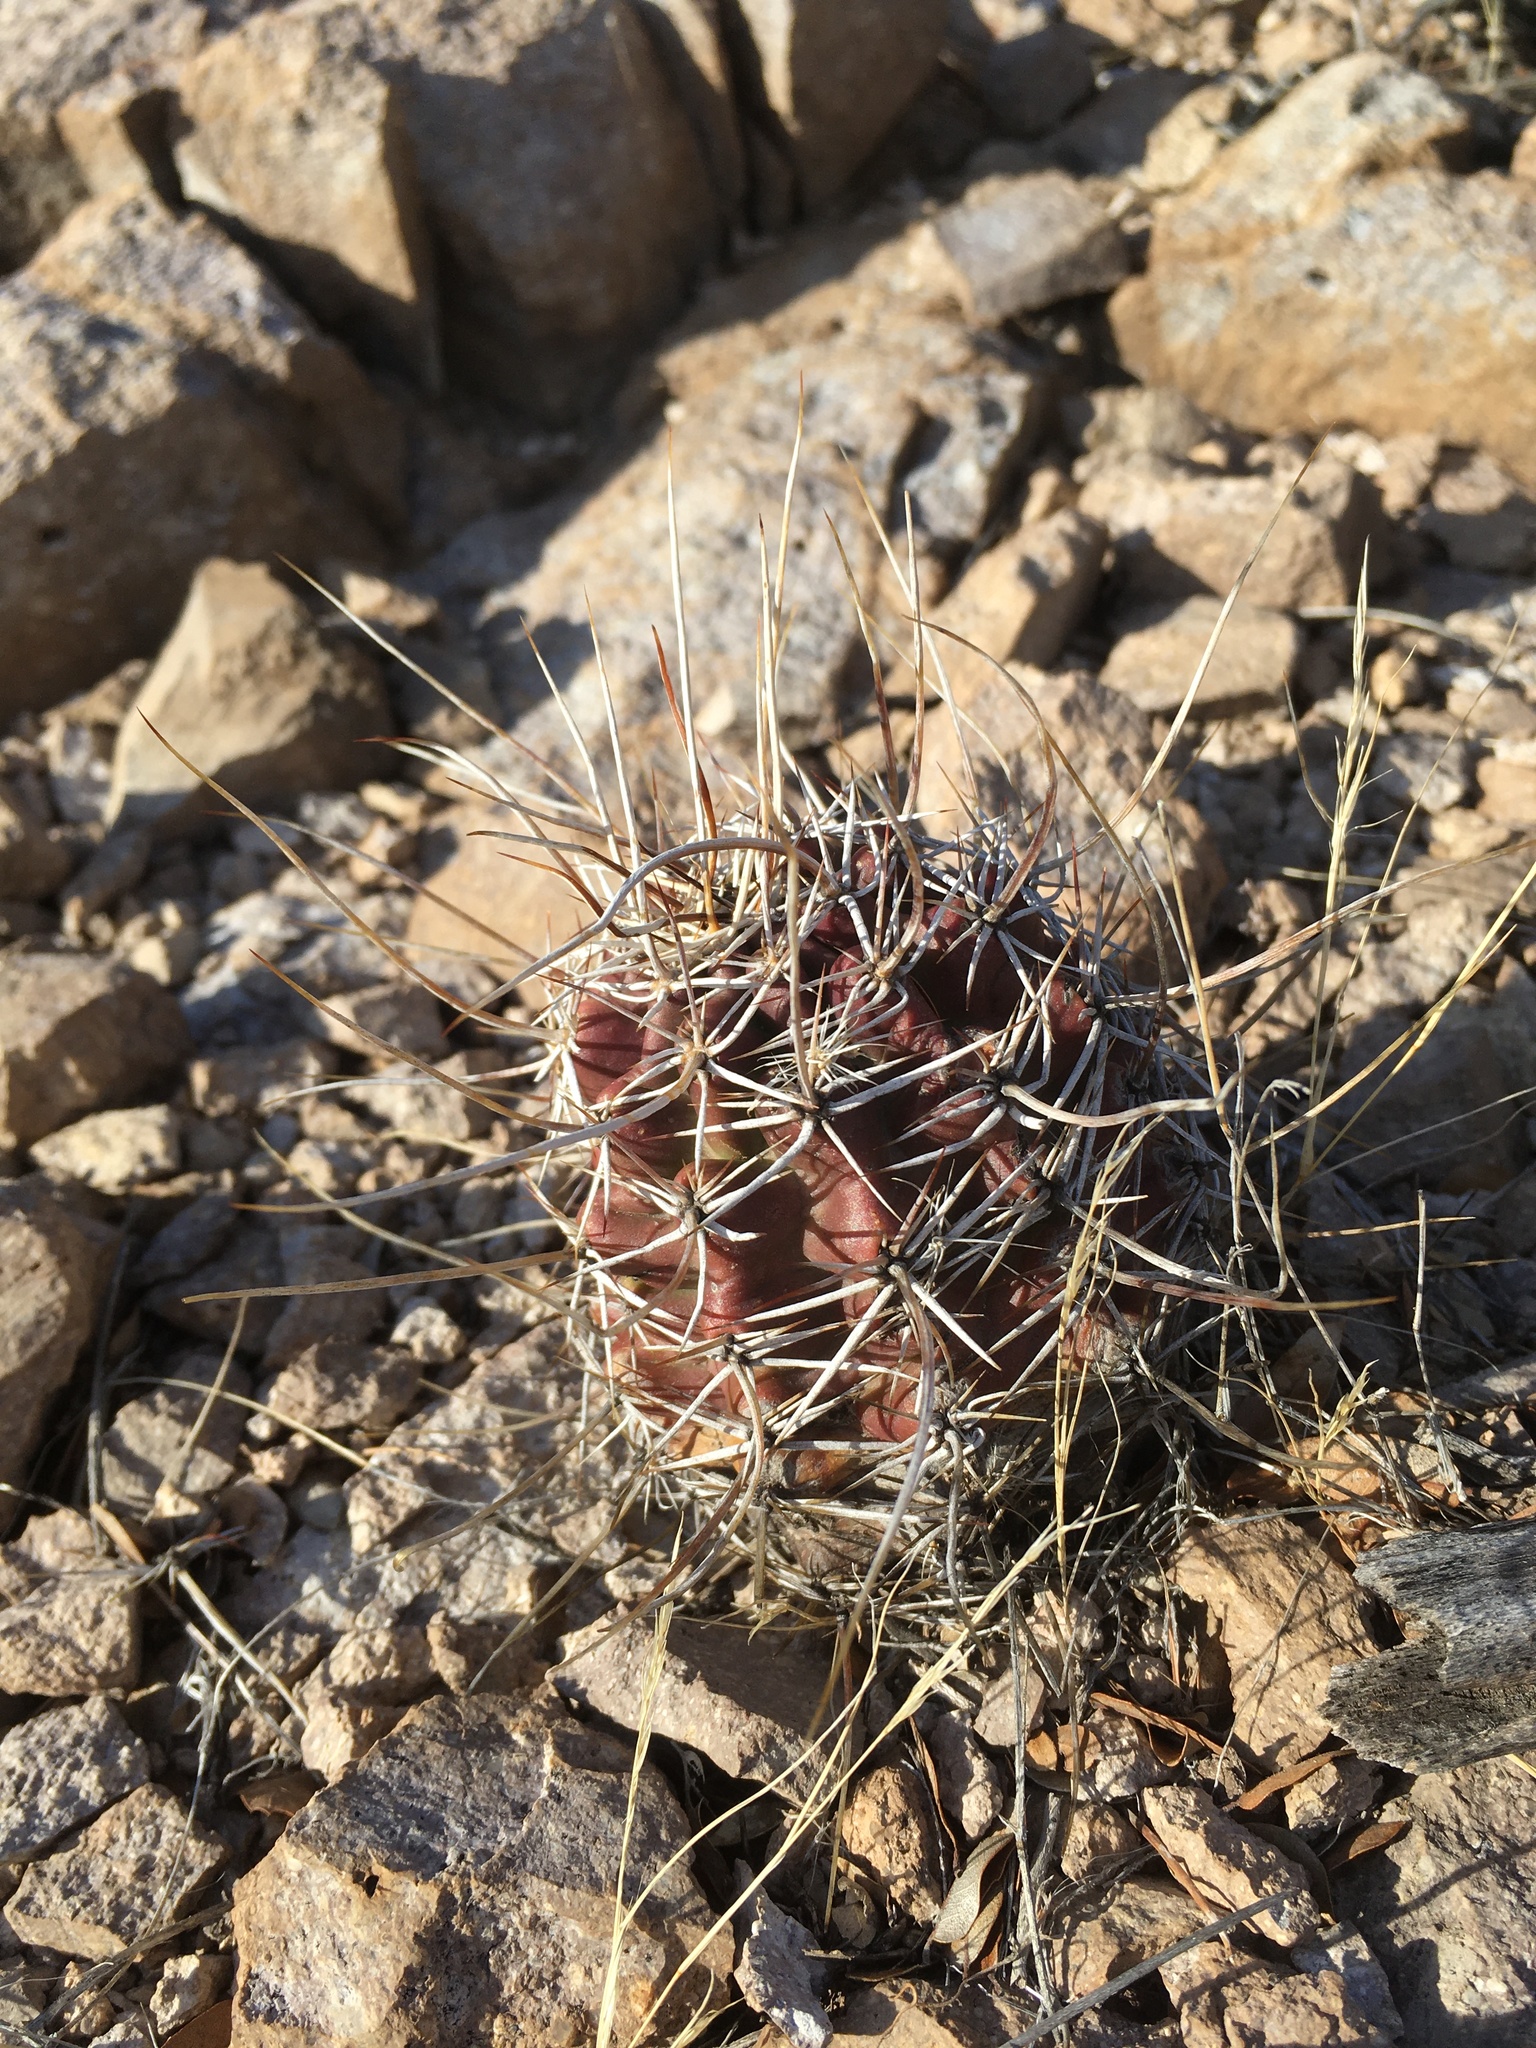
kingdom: Plantae
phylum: Tracheophyta
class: Magnoliopsida
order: Caryophyllales
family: Cactaceae
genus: Echinocereus
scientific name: Echinocereus fendleri
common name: Fendler's hedgehog cactus
